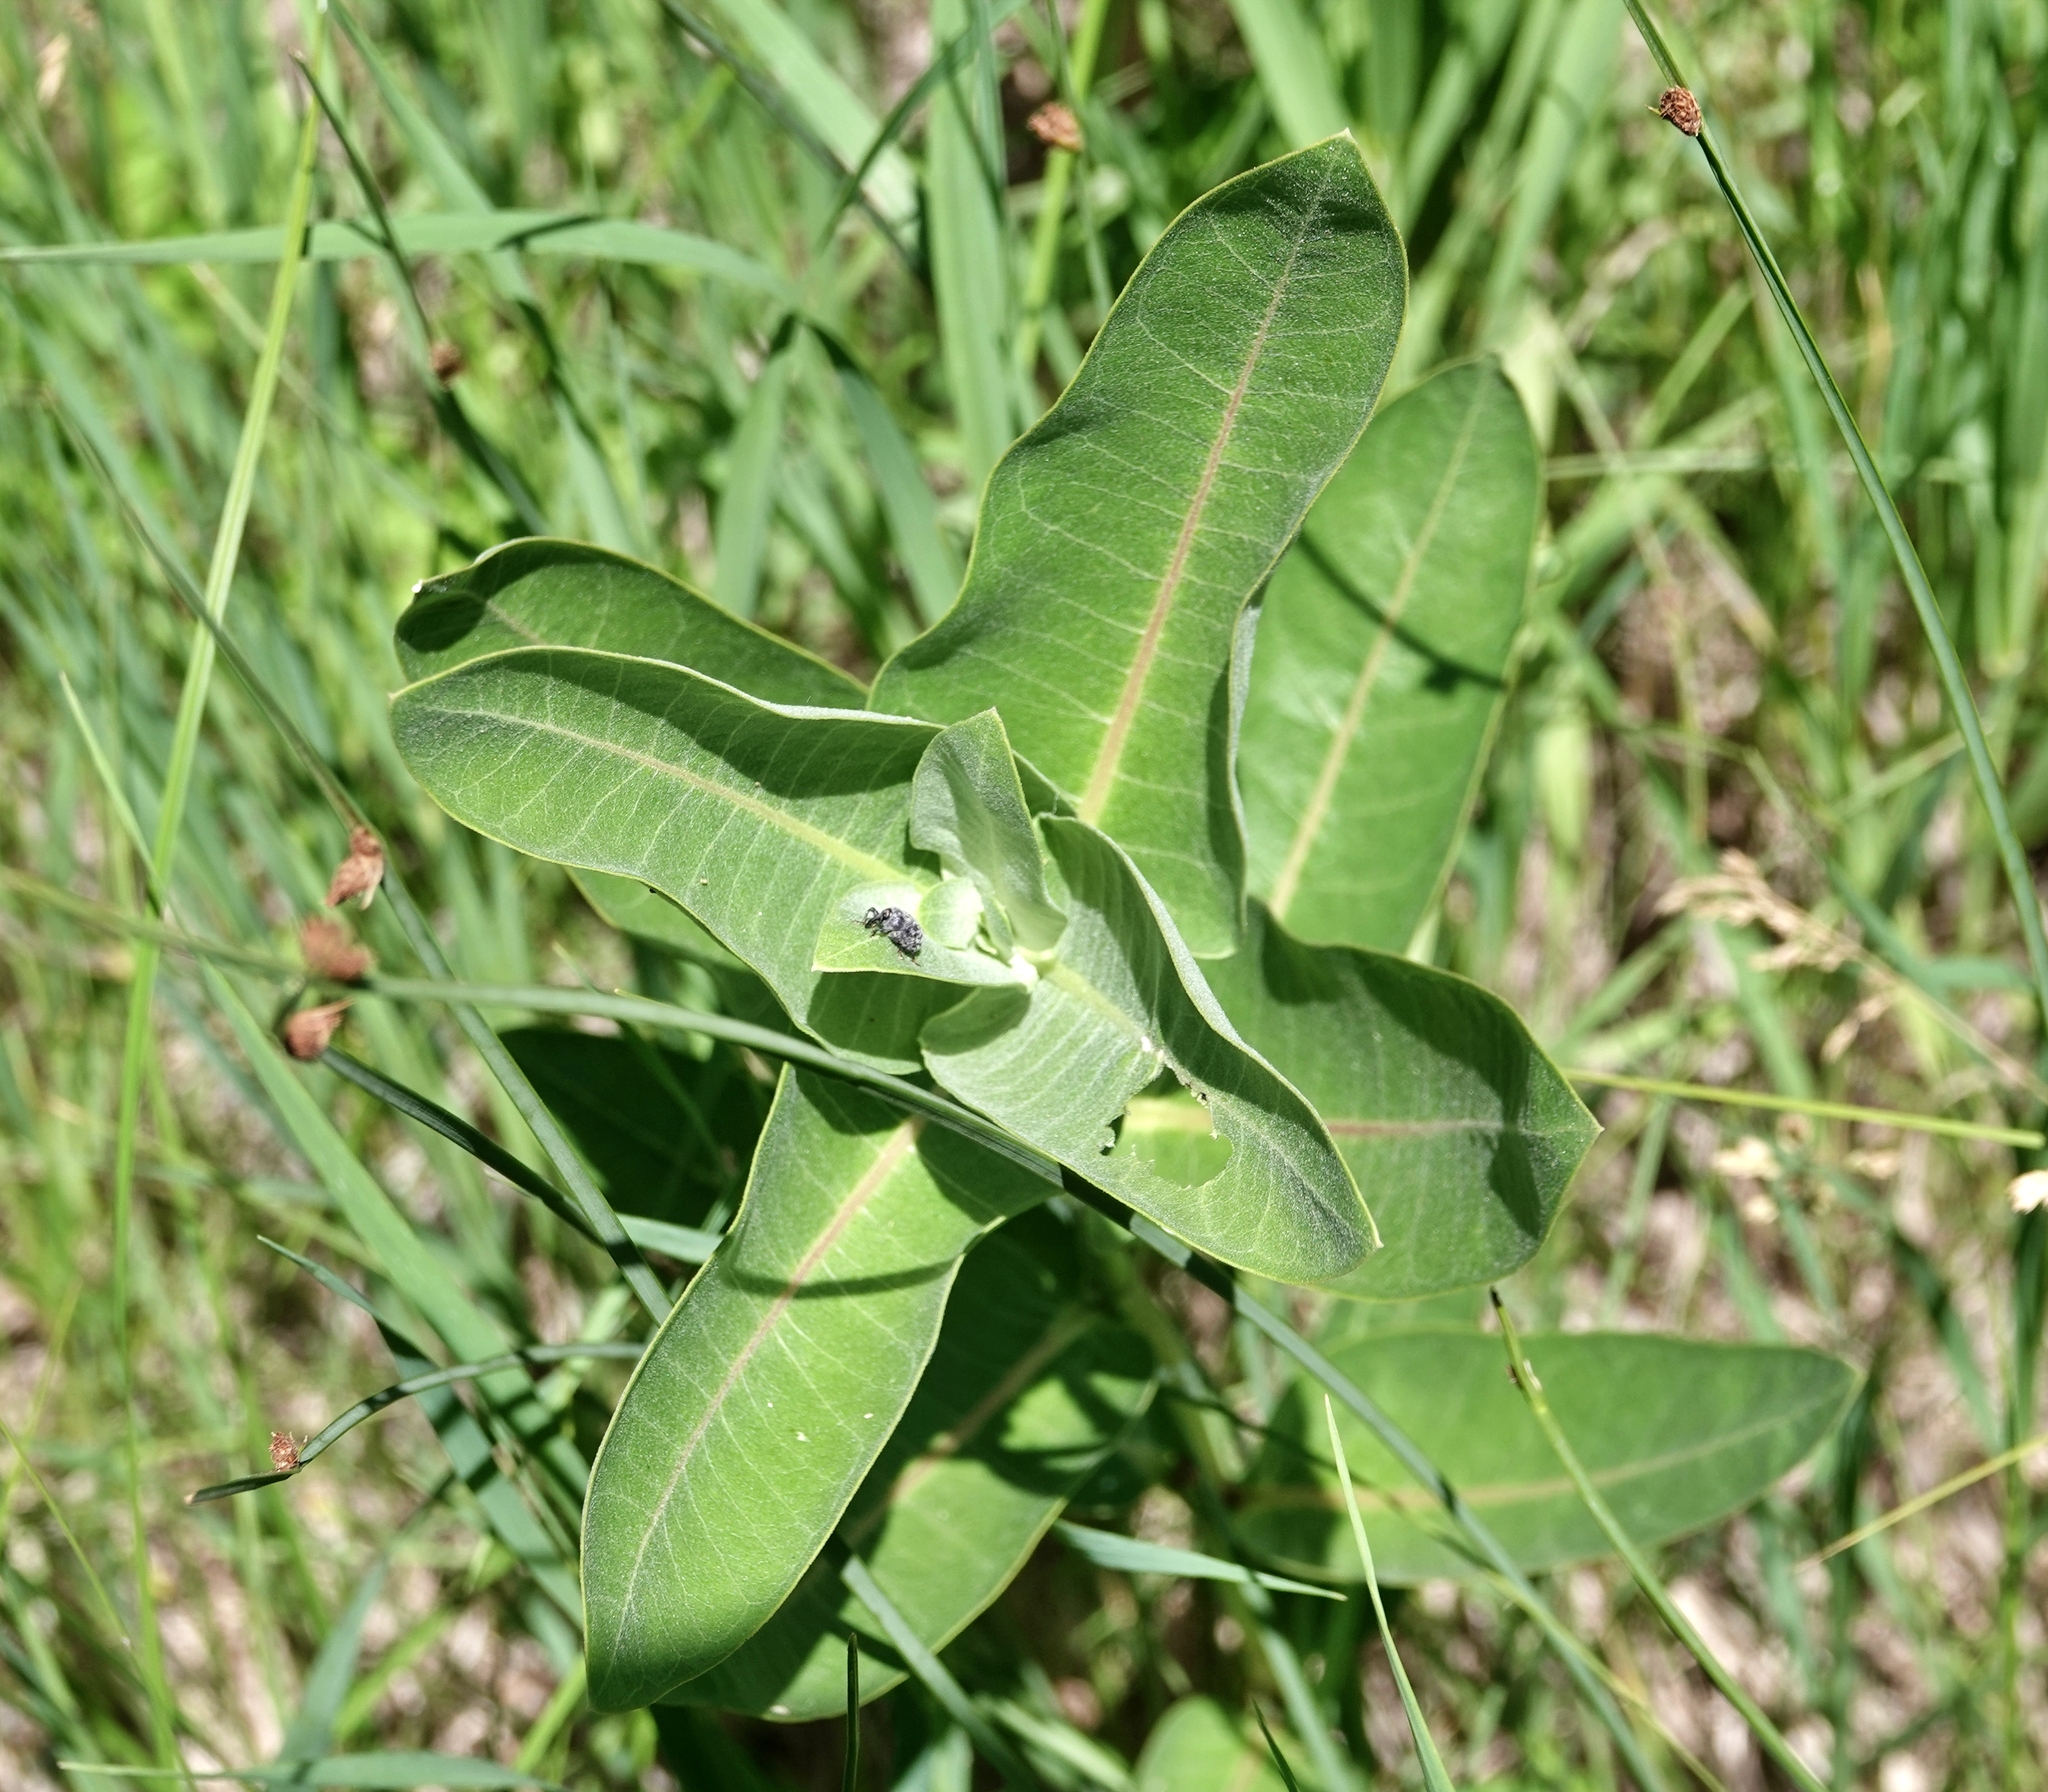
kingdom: Animalia
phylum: Arthropoda
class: Insecta
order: Coleoptera
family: Curculionidae
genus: Rhyssomatus
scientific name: Rhyssomatus lineaticollis
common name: Milkweed stem weevil
